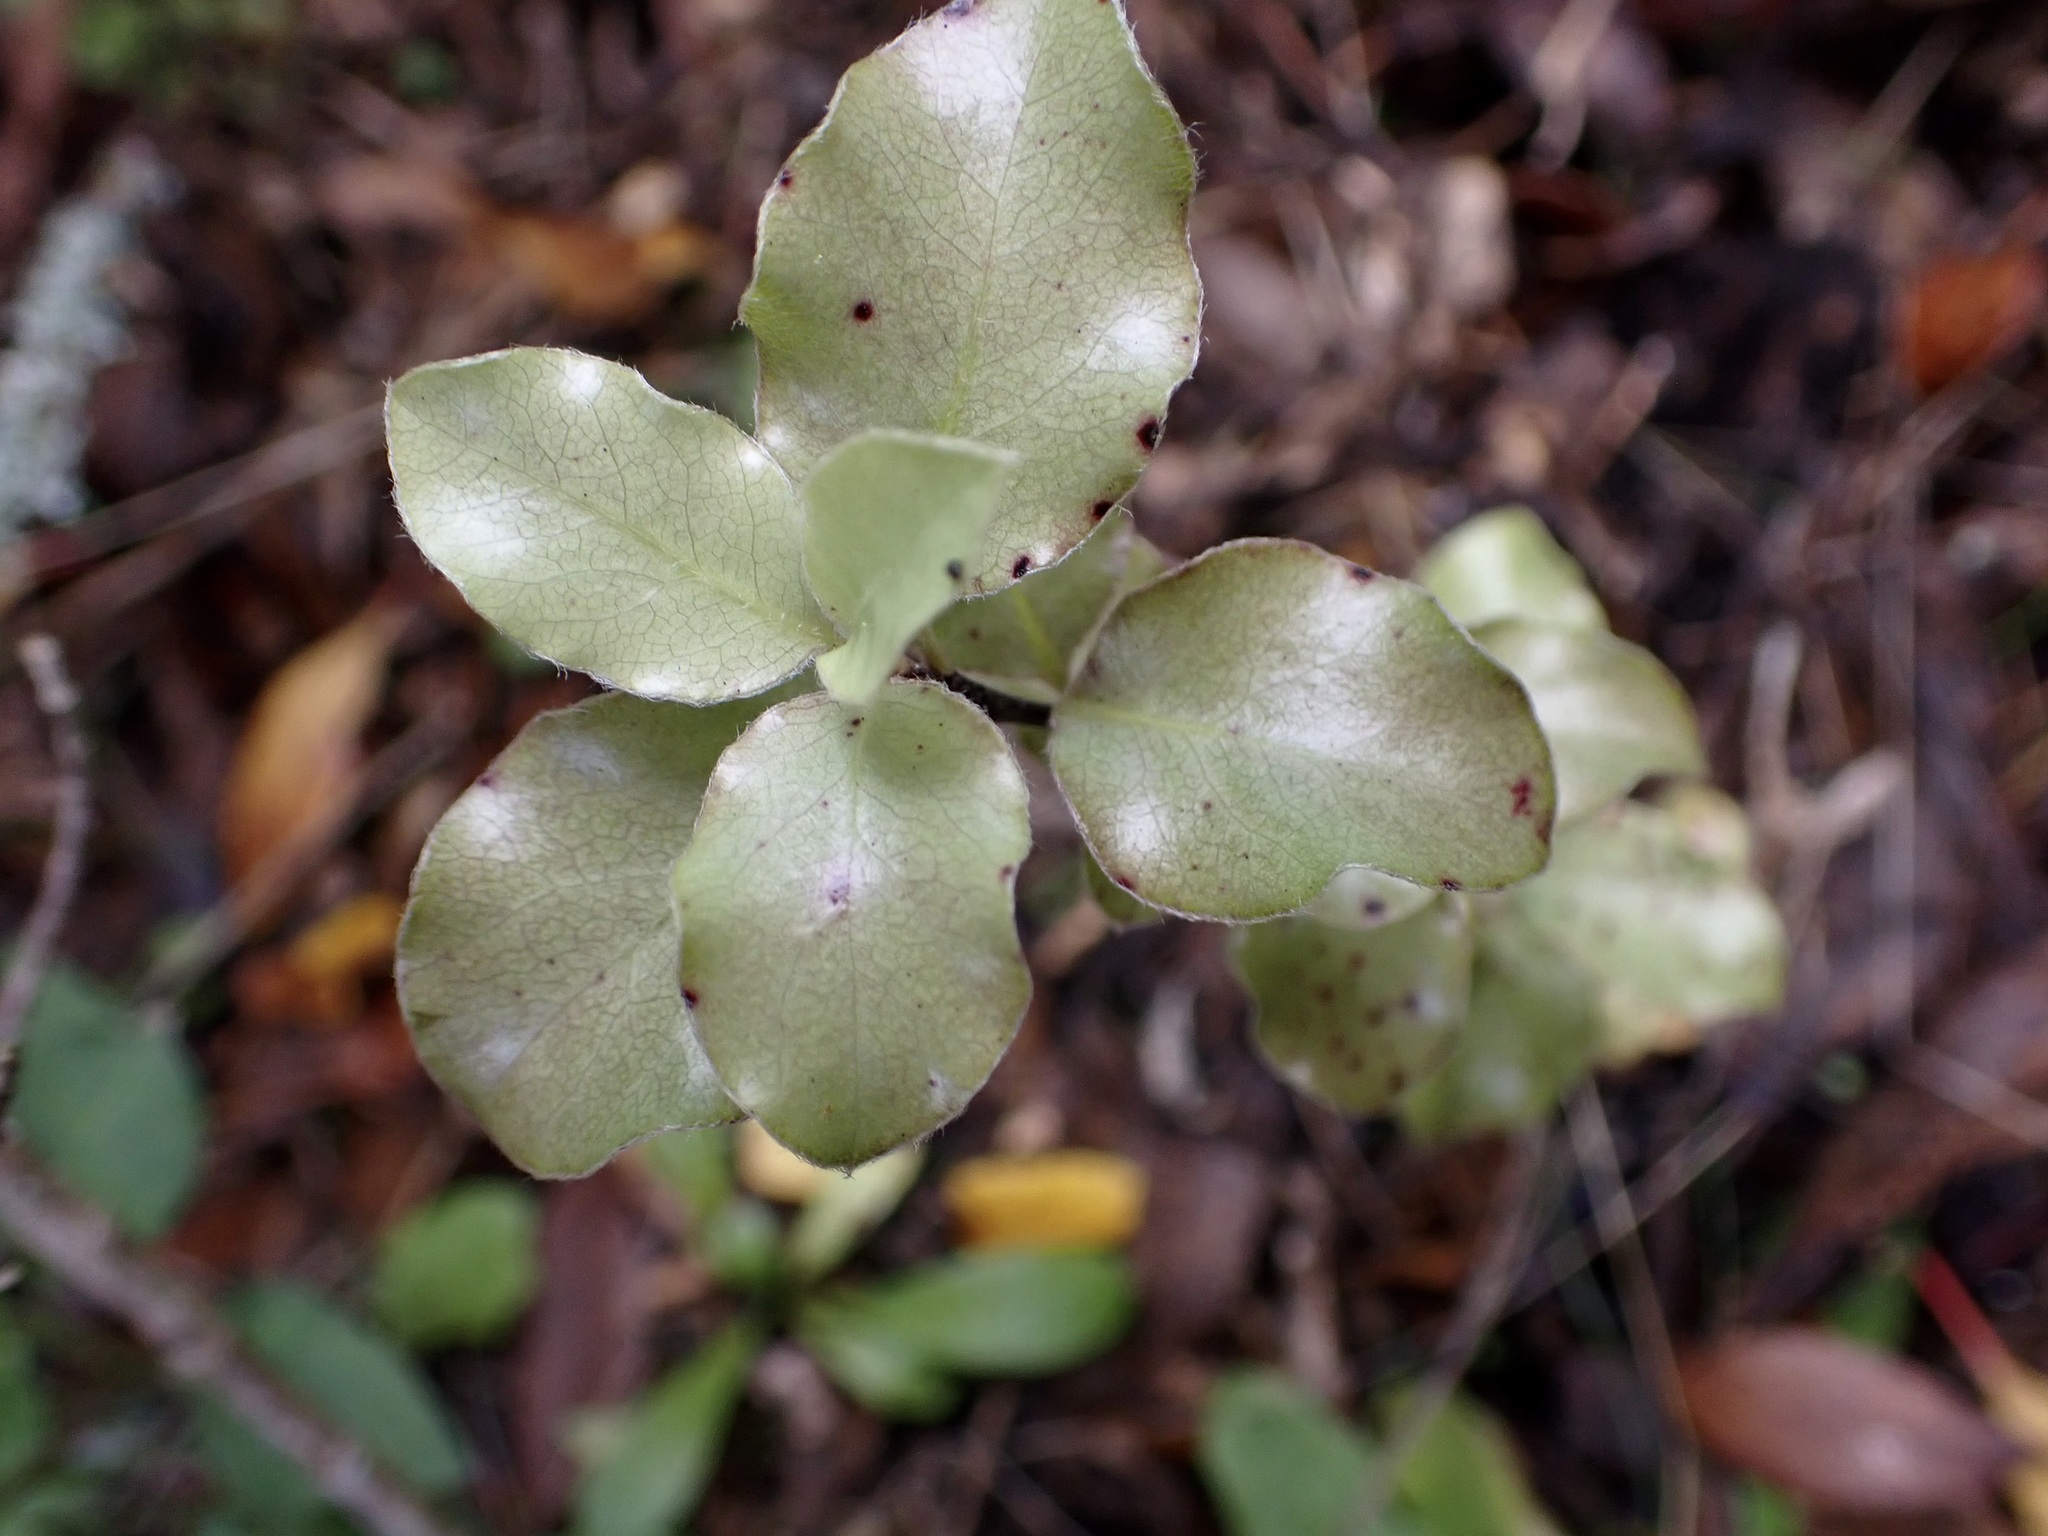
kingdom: Plantae
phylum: Tracheophyta
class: Magnoliopsida
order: Apiales
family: Pittosporaceae
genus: Pittosporum
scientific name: Pittosporum tenuifolium
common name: Kohuhu
